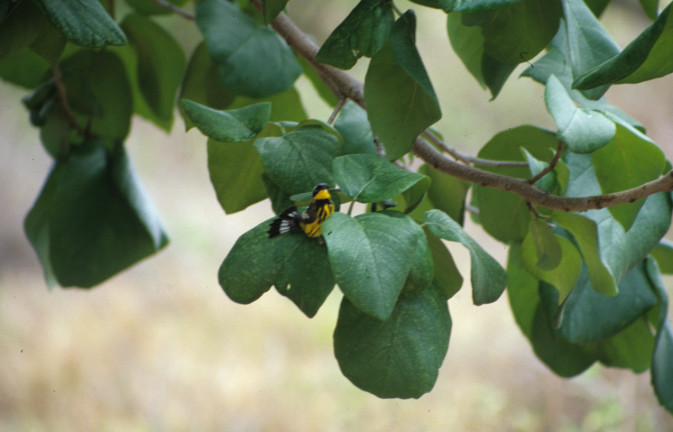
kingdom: Animalia
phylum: Chordata
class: Aves
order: Passeriformes
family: Parulidae
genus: Setophaga
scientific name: Setophaga magnolia
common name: Magnolia warbler
